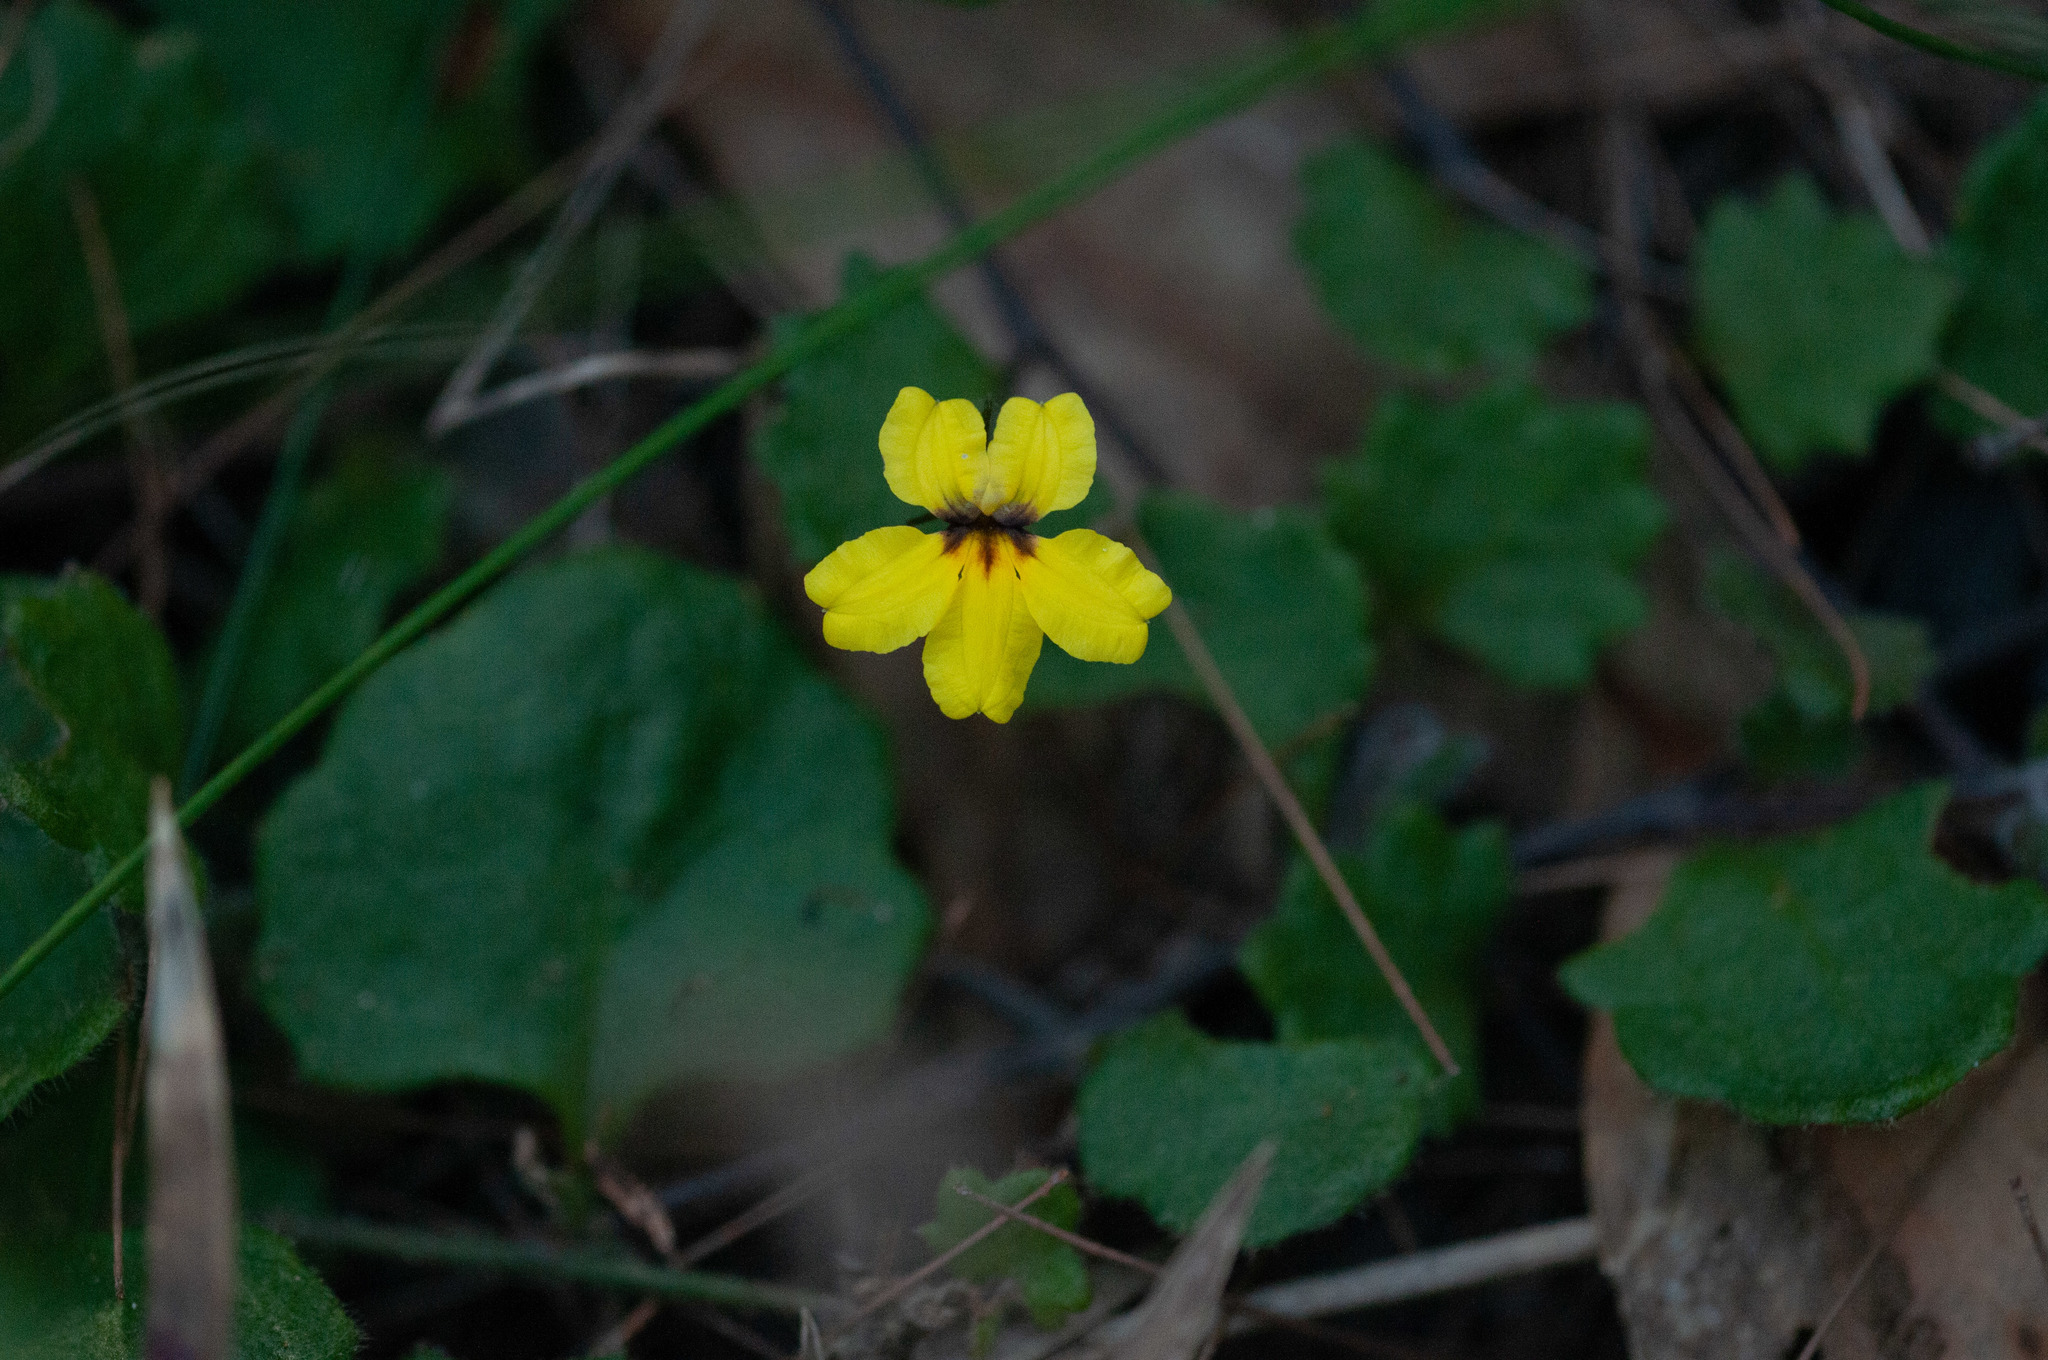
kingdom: Plantae
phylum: Tracheophyta
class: Magnoliopsida
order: Asterales
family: Goodeniaceae
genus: Goodenia
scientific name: Goodenia rotundifolia
